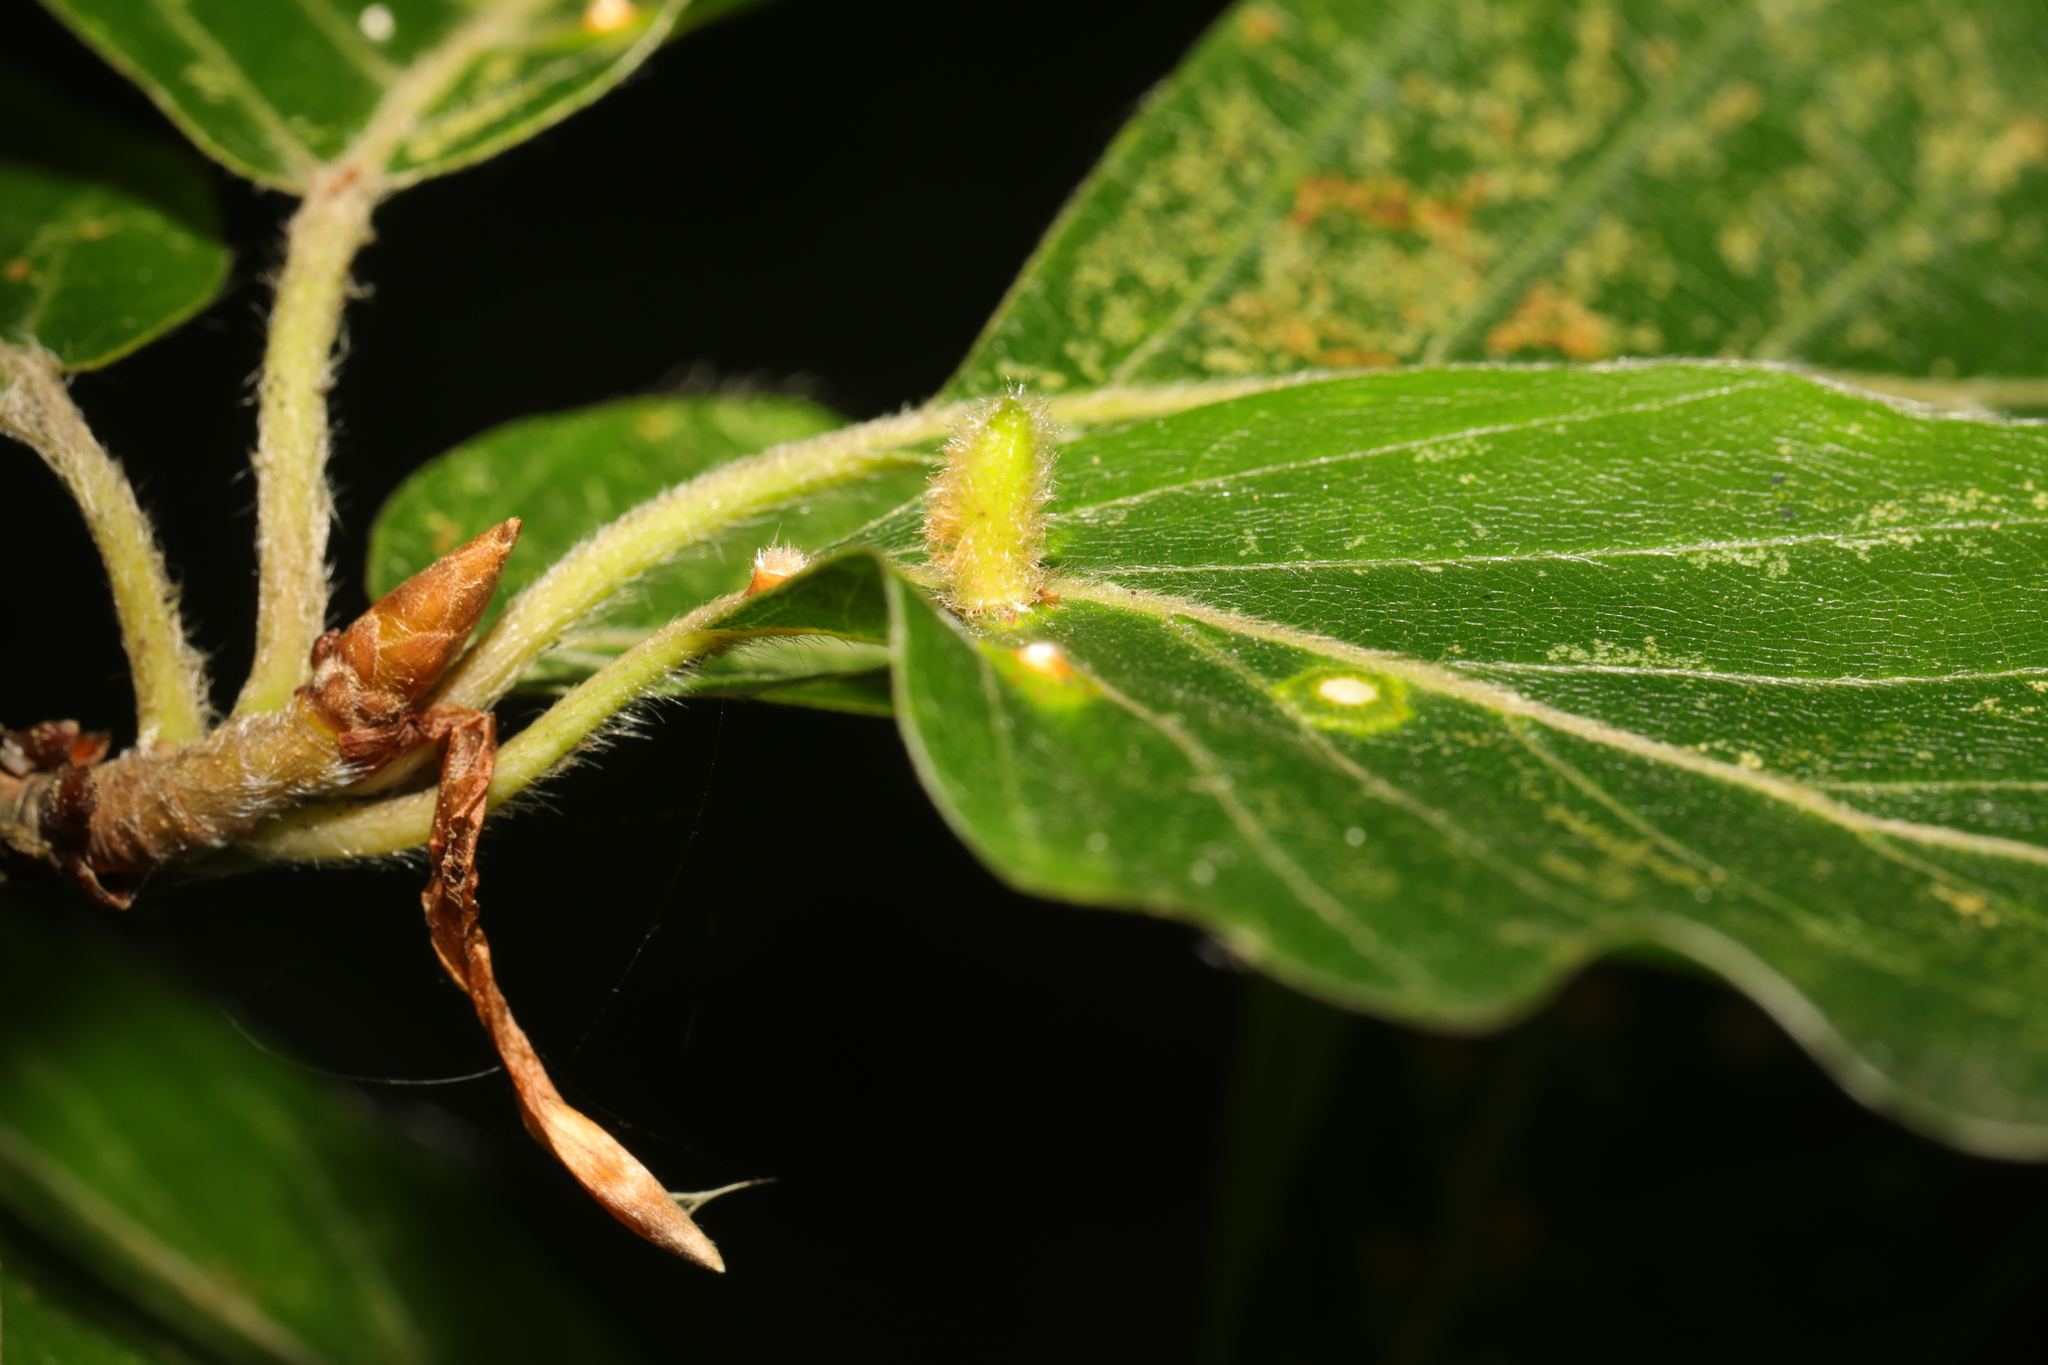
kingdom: Animalia
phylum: Arthropoda
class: Insecta
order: Diptera
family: Cecidomyiidae
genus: Hartigiola
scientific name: Hartigiola annulipes
